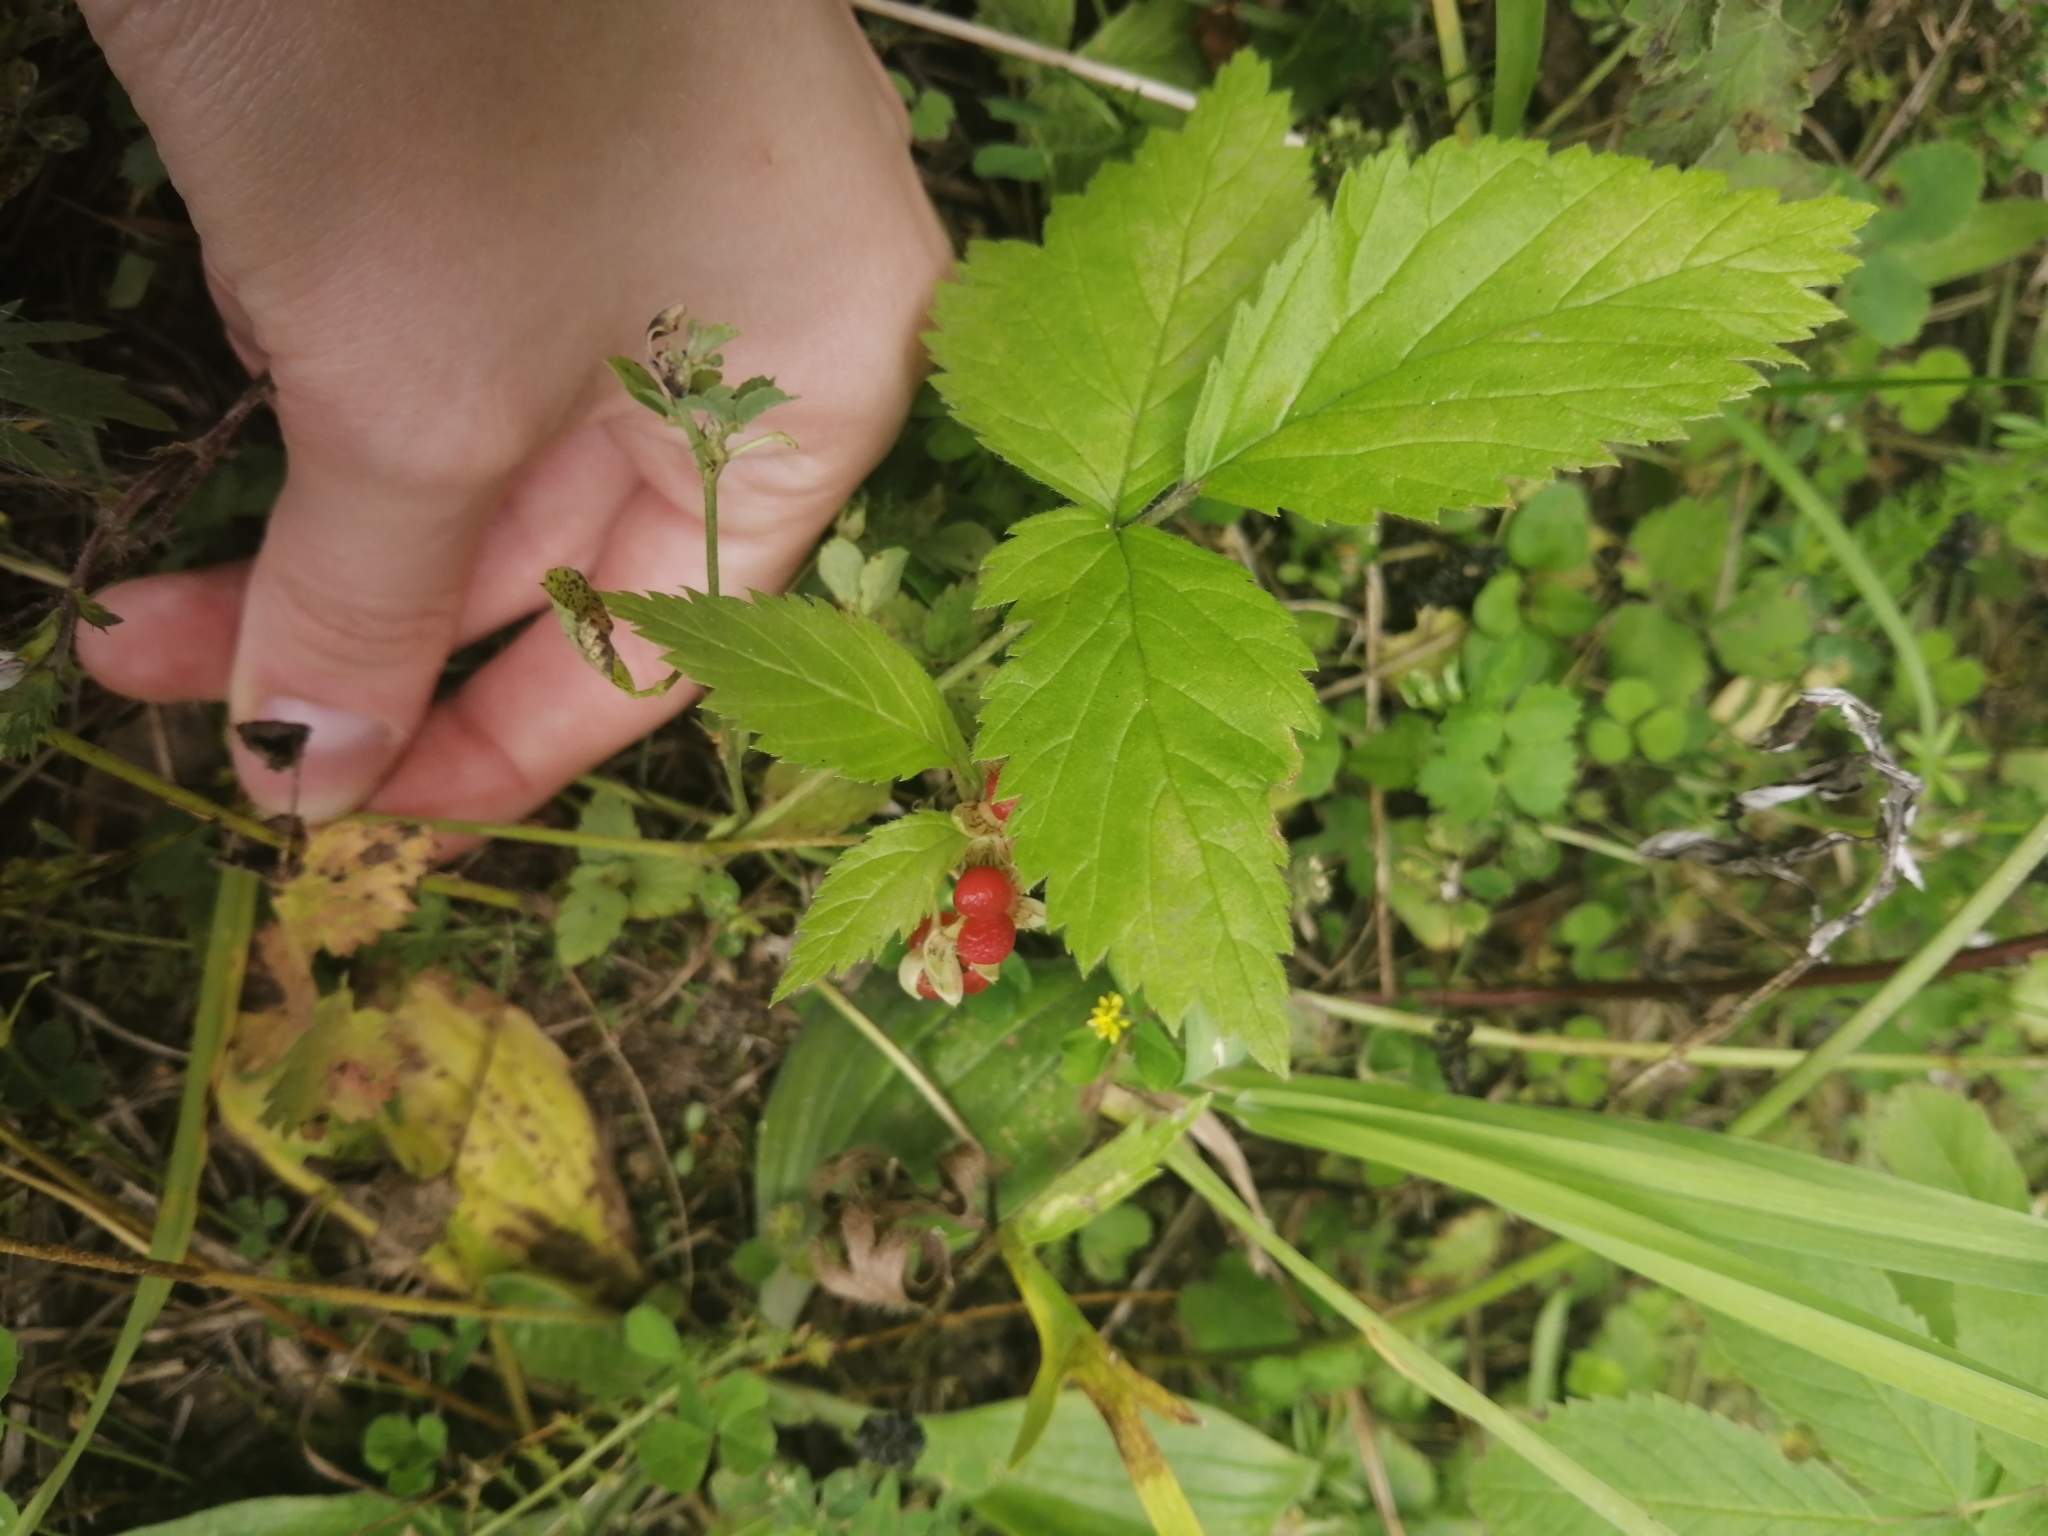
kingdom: Plantae
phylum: Tracheophyta
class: Magnoliopsida
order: Rosales
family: Rosaceae
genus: Rubus
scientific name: Rubus saxatilis
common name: Stone bramble
